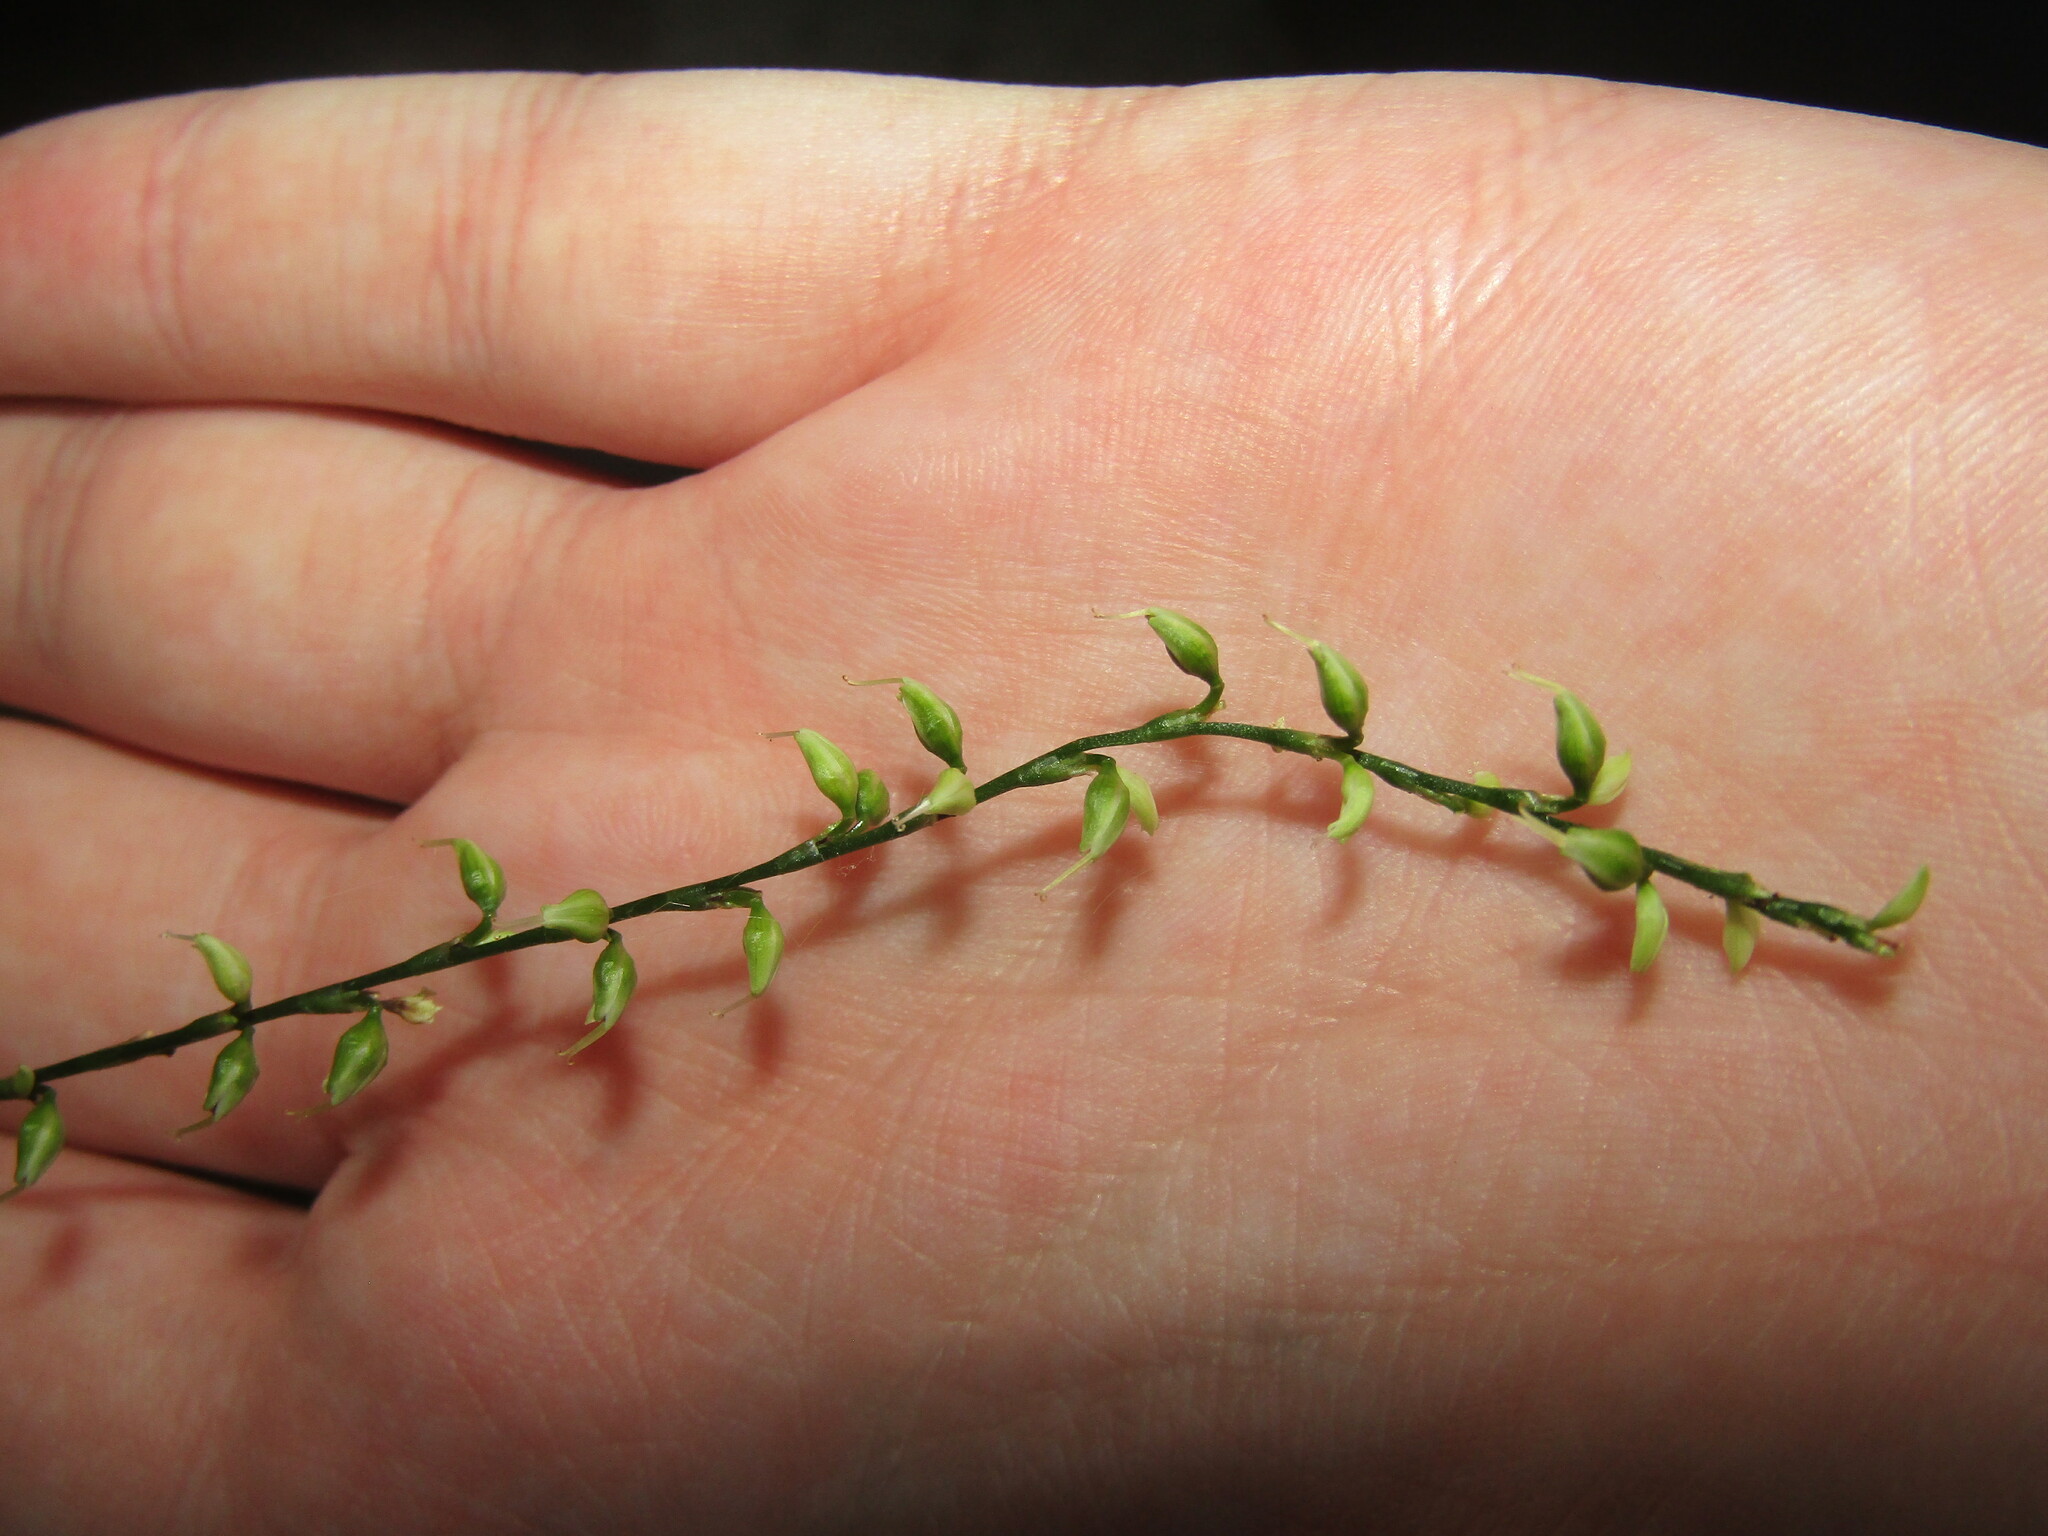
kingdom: Plantae
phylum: Tracheophyta
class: Magnoliopsida
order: Caryophyllales
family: Polygonaceae
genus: Persicaria
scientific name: Persicaria virginiana
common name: Jumpseed
